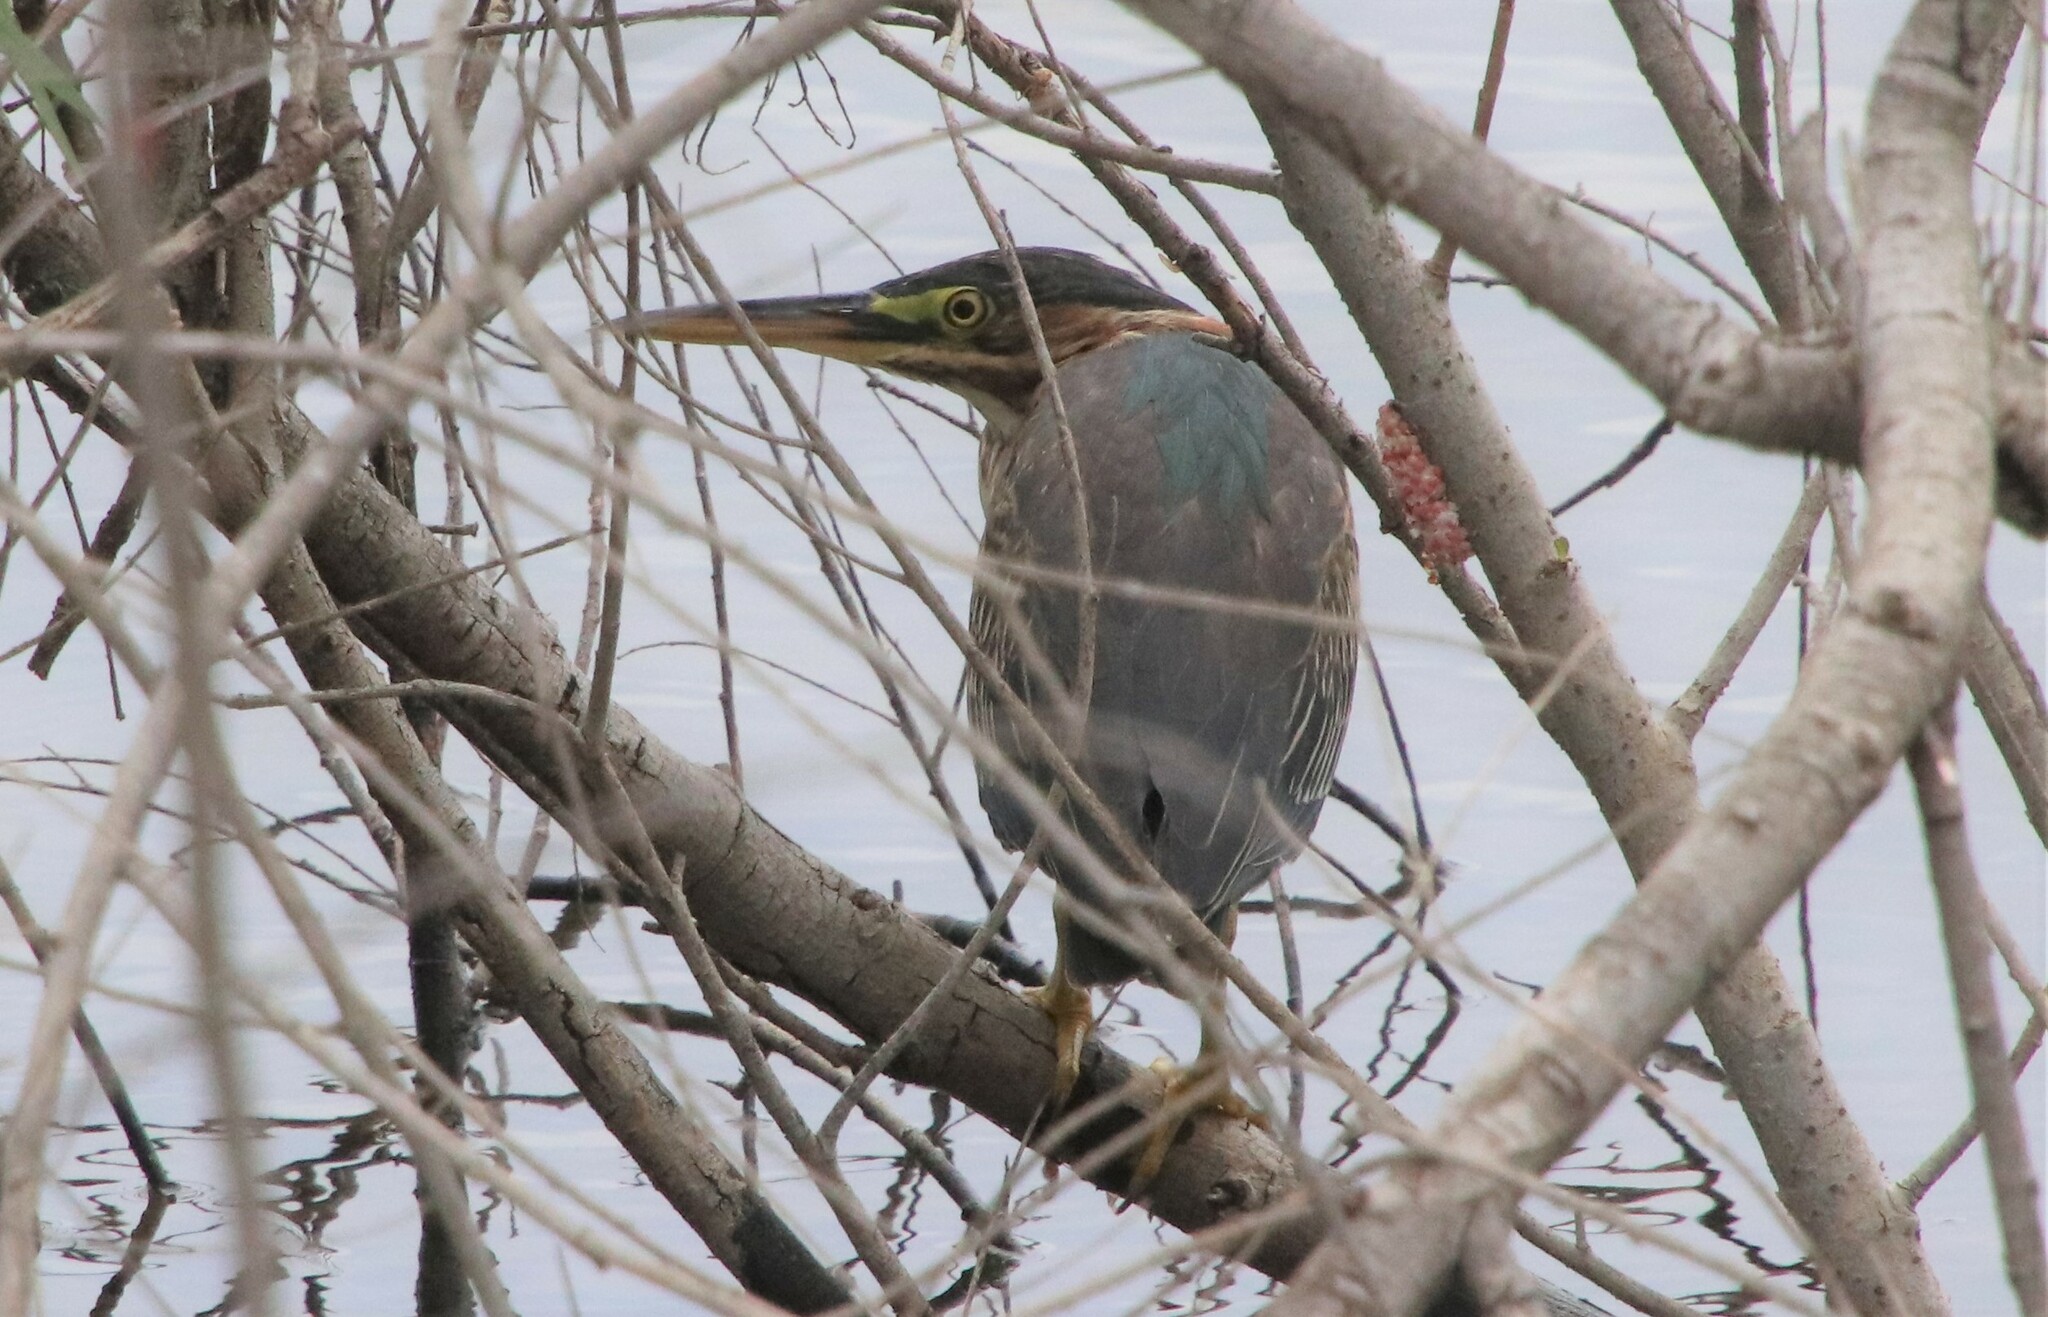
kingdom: Animalia
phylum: Chordata
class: Aves
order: Pelecaniformes
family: Ardeidae
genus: Butorides
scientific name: Butorides virescens
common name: Green heron
